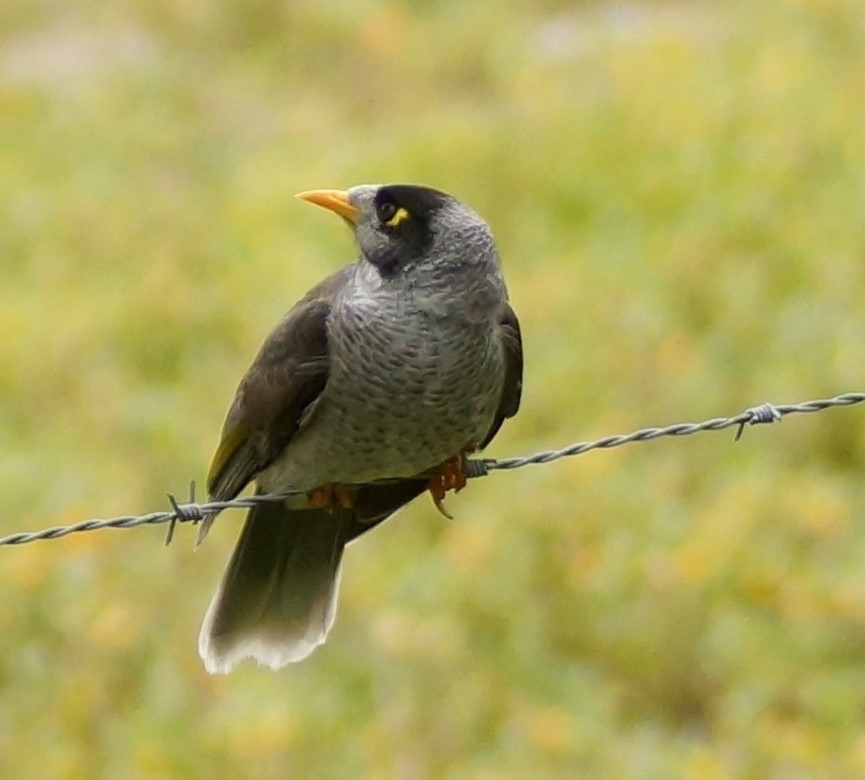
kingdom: Animalia
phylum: Chordata
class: Aves
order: Passeriformes
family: Meliphagidae
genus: Manorina
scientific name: Manorina melanocephala
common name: Noisy miner
